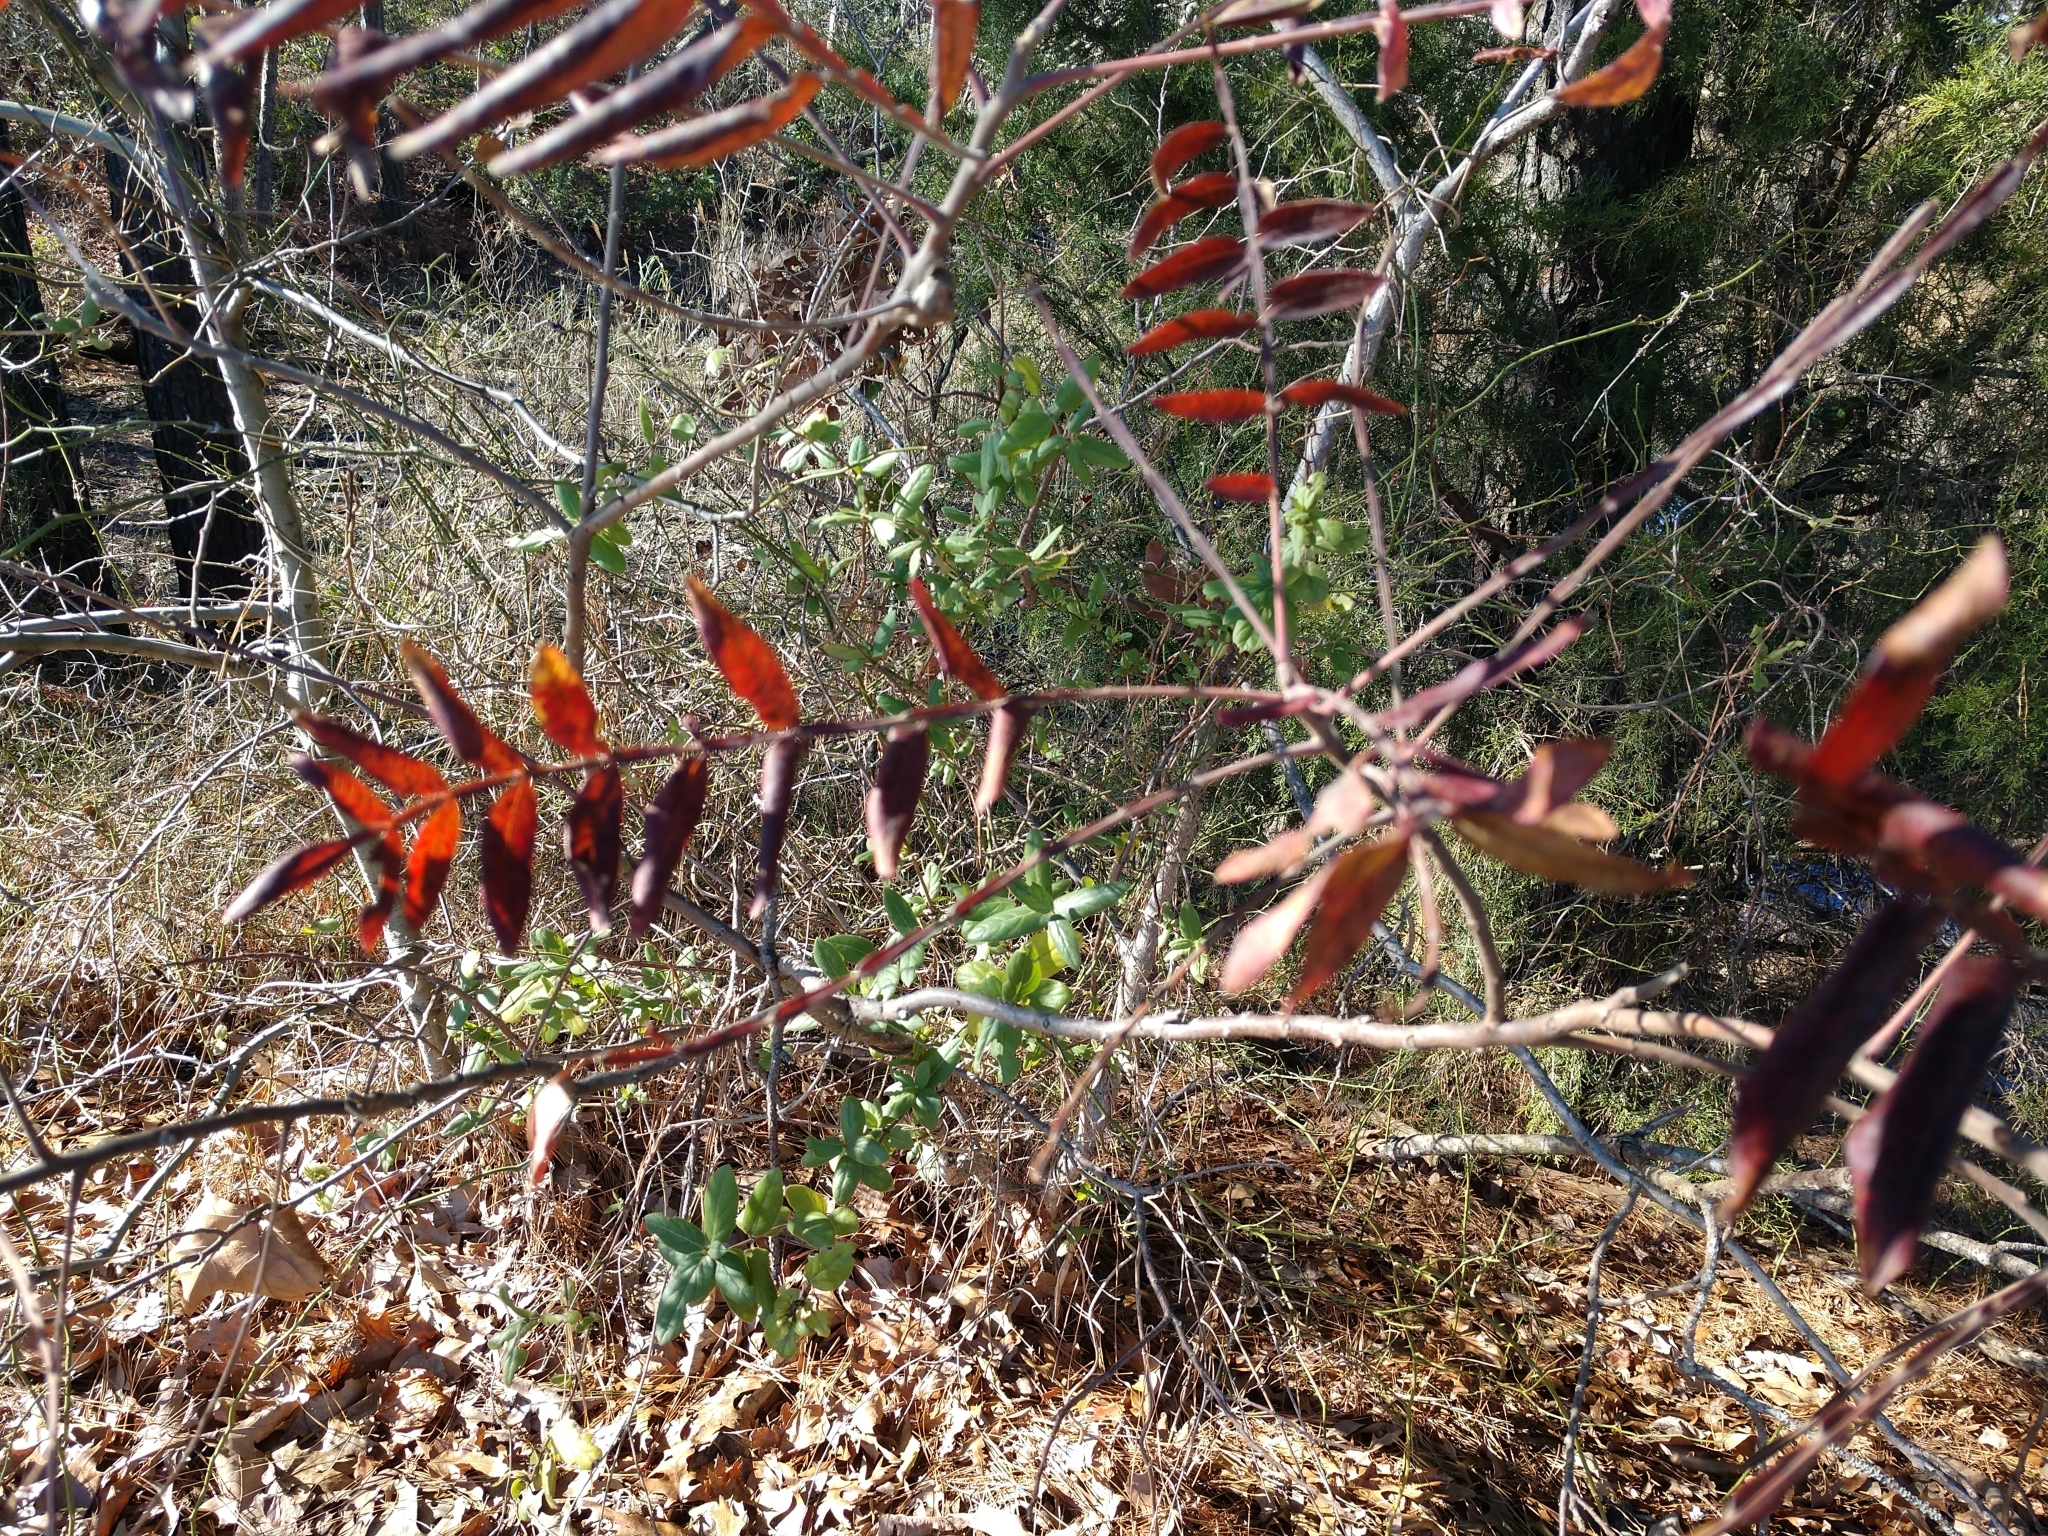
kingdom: Plantae
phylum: Tracheophyta
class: Magnoliopsida
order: Sapindales
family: Anacardiaceae
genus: Rhus
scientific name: Rhus copallina
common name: Shining sumac
